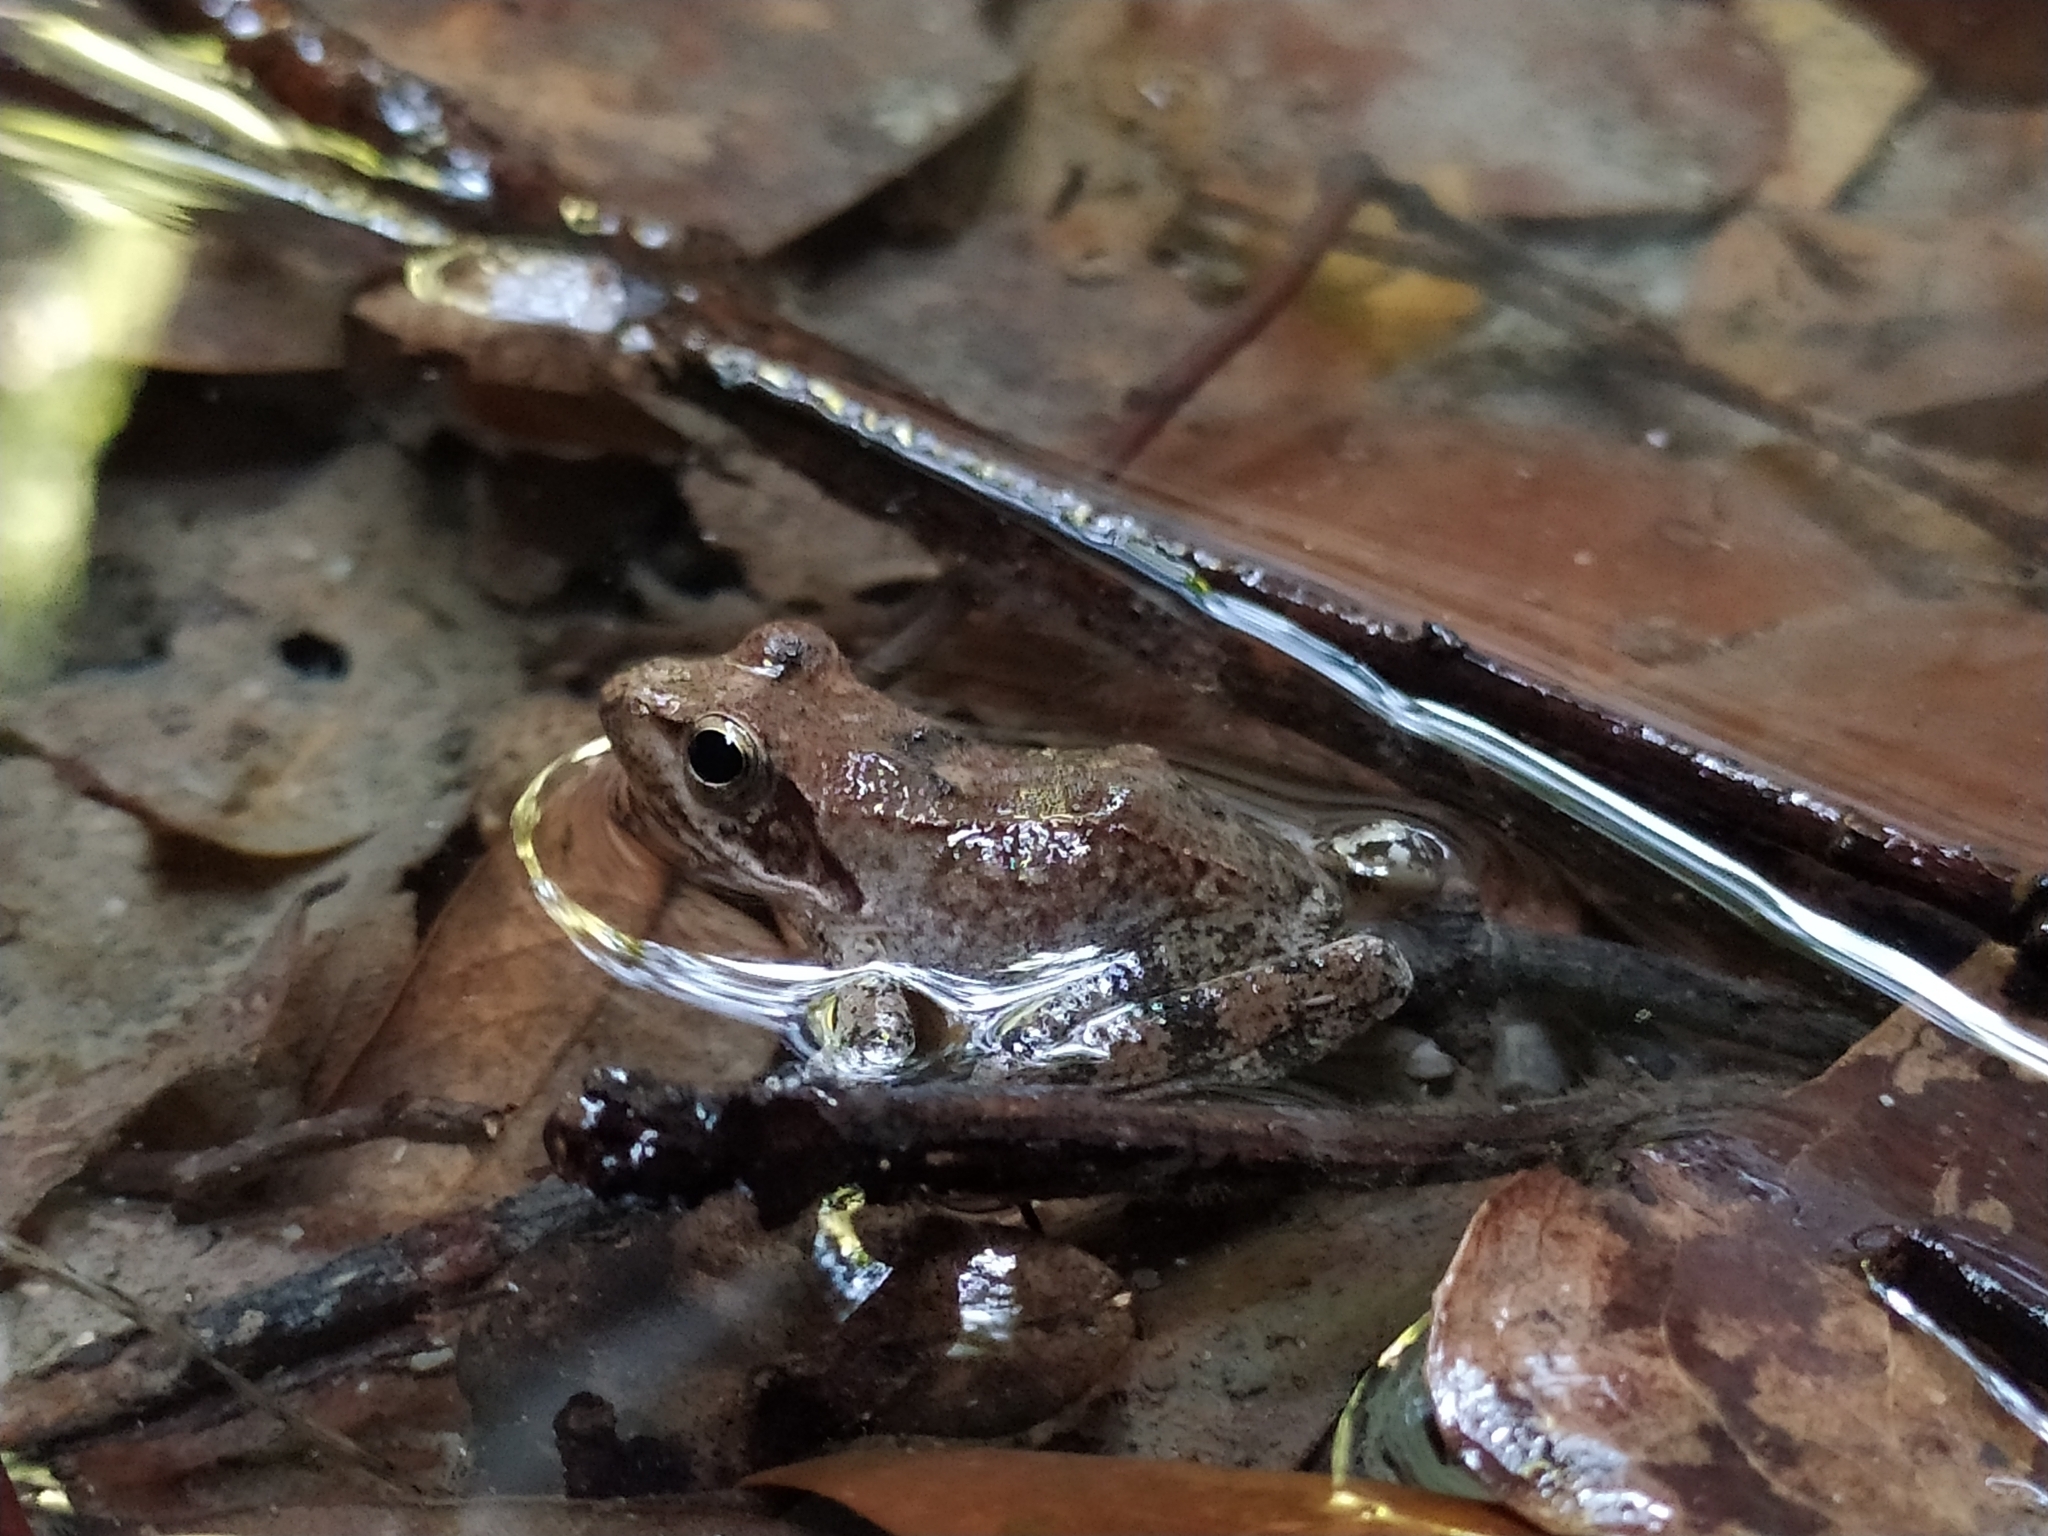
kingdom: Animalia
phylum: Chordata
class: Amphibia
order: Anura
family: Ranidae
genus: Rana
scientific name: Rana italica
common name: Italian stream frog
